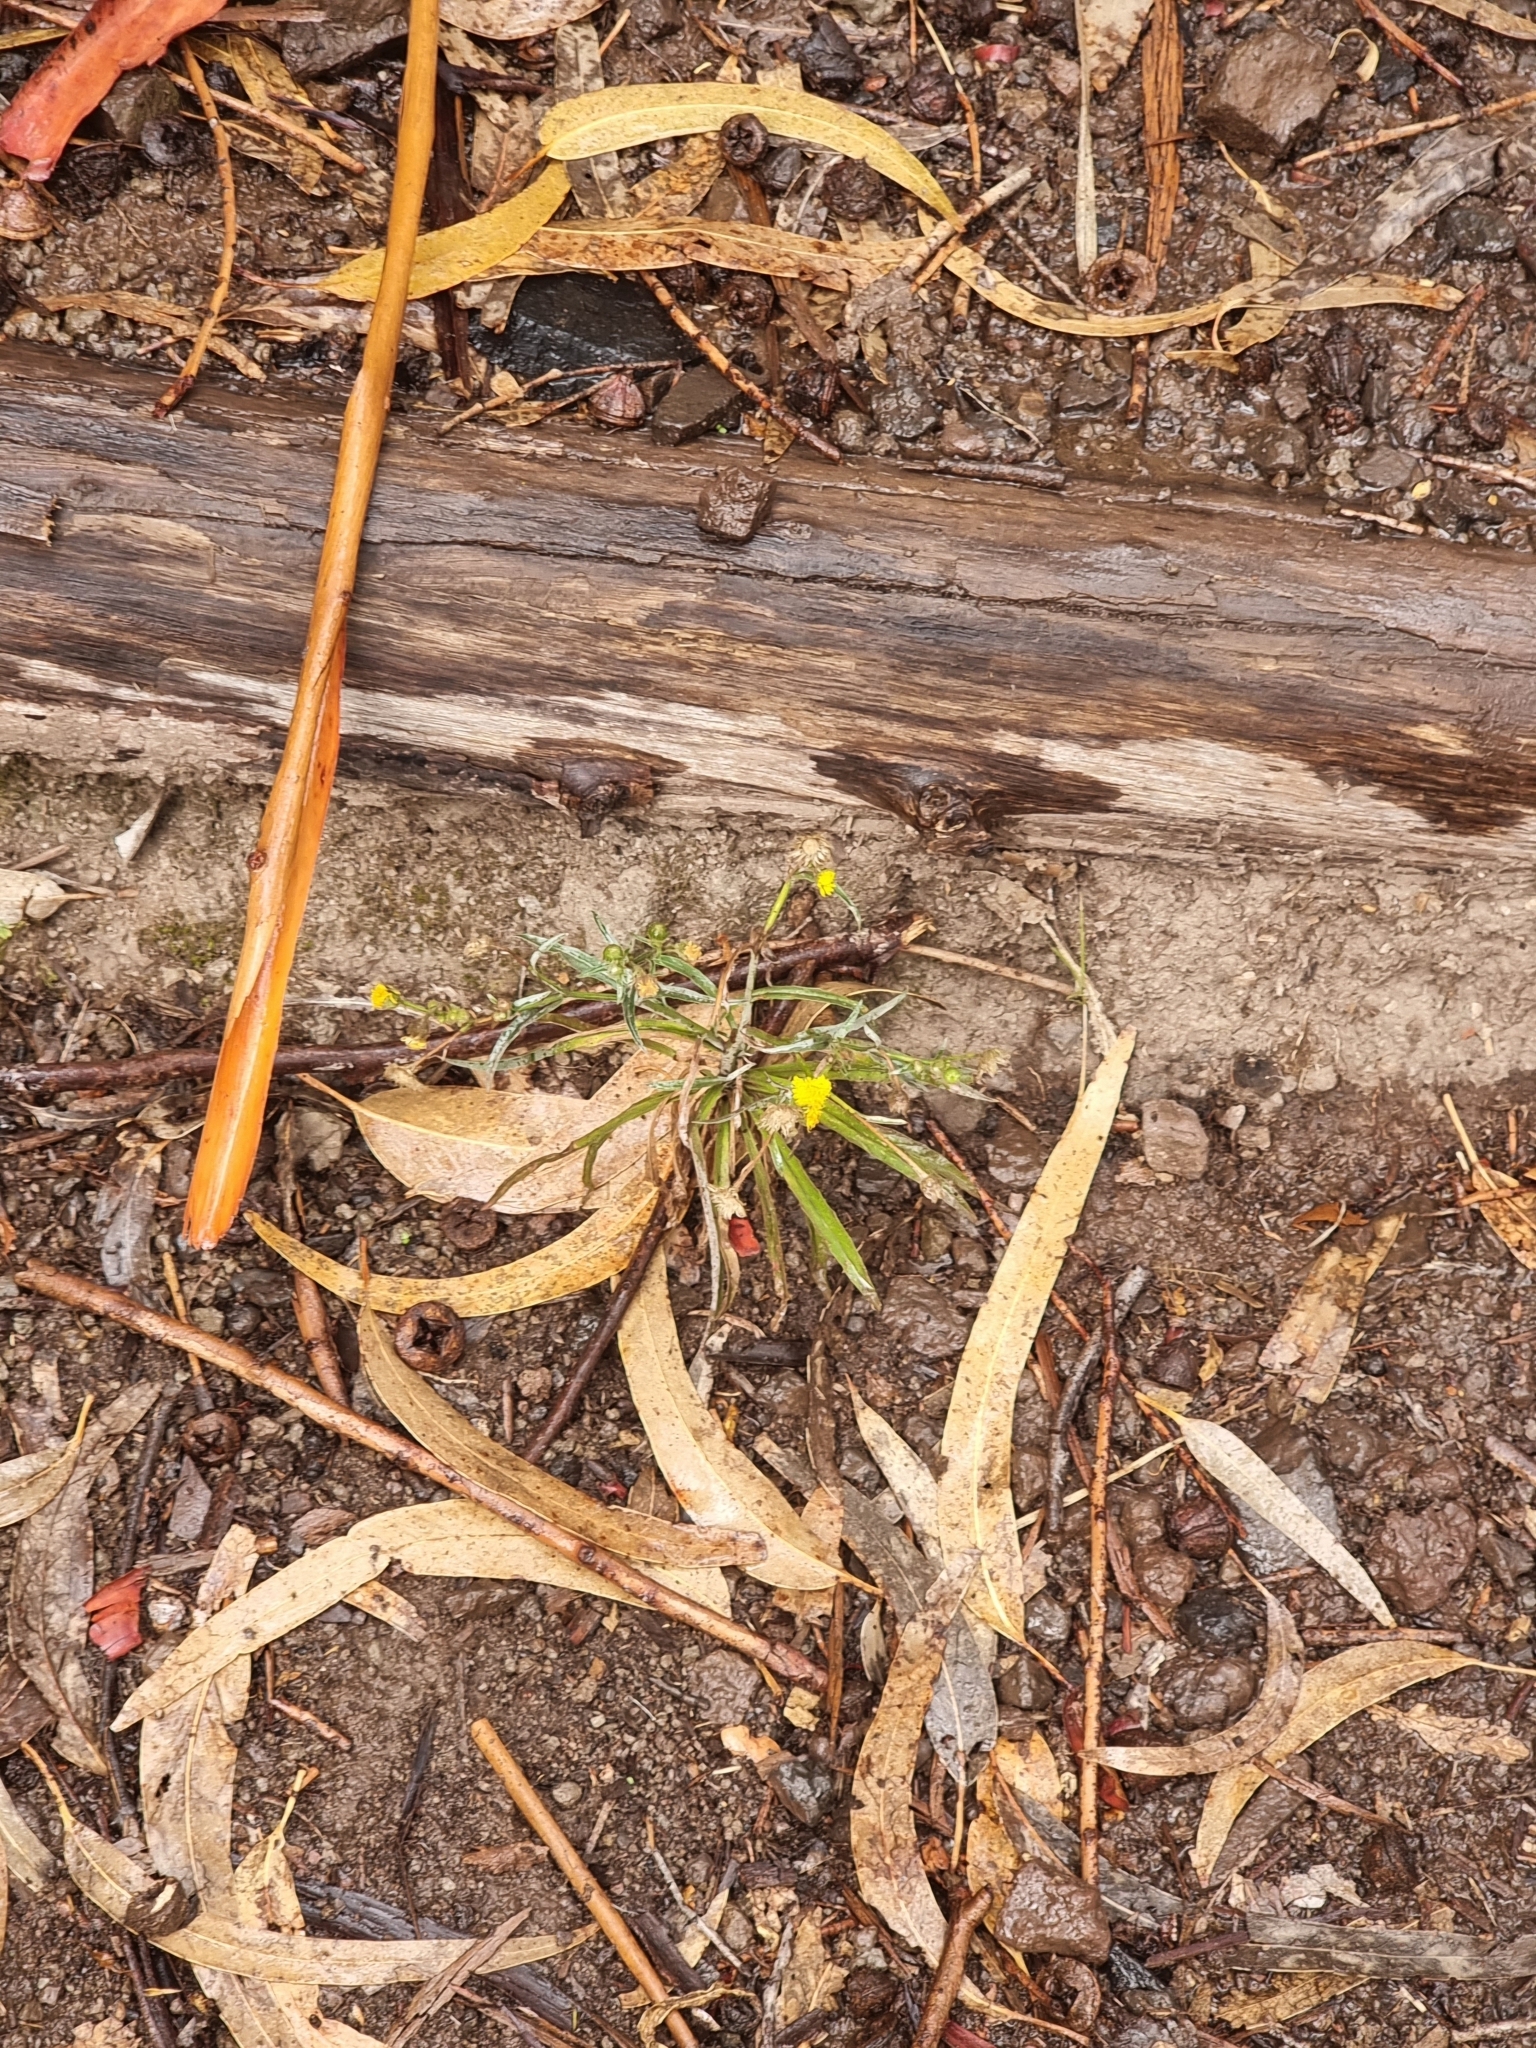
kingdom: Plantae
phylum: Tracheophyta
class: Magnoliopsida
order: Asterales
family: Asteraceae
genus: Andryala
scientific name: Andryala glandulosa
